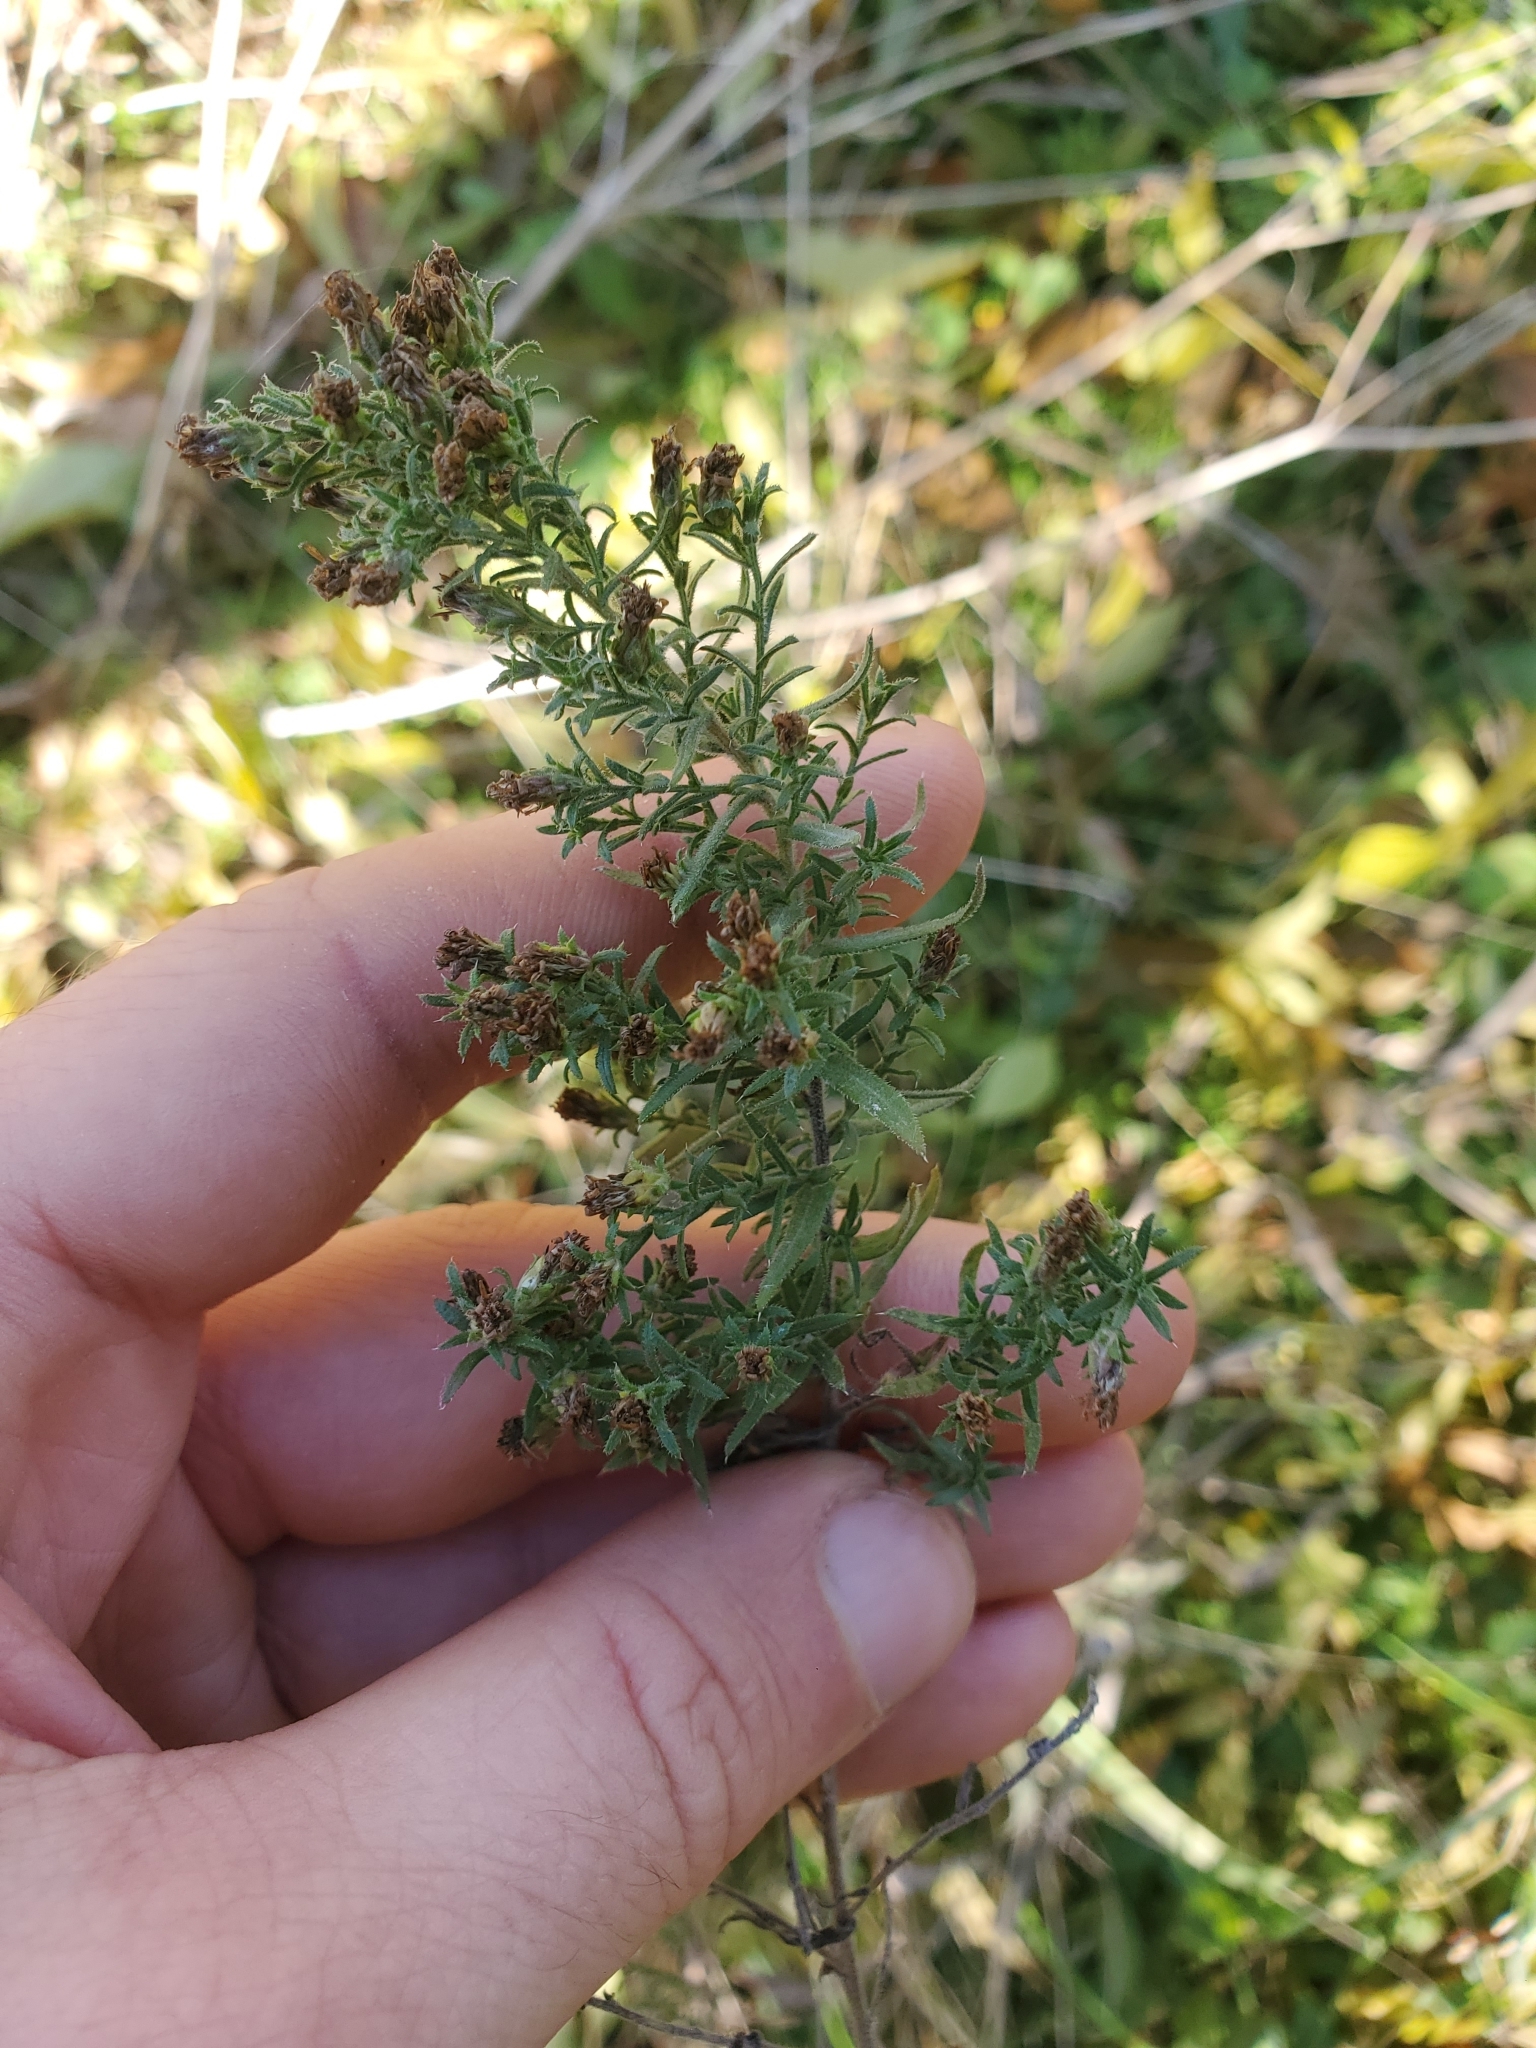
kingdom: Plantae
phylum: Tracheophyta
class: Magnoliopsida
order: Asterales
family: Asteraceae
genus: Symphyotrichum
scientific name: Symphyotrichum ericoides
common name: Heath aster
